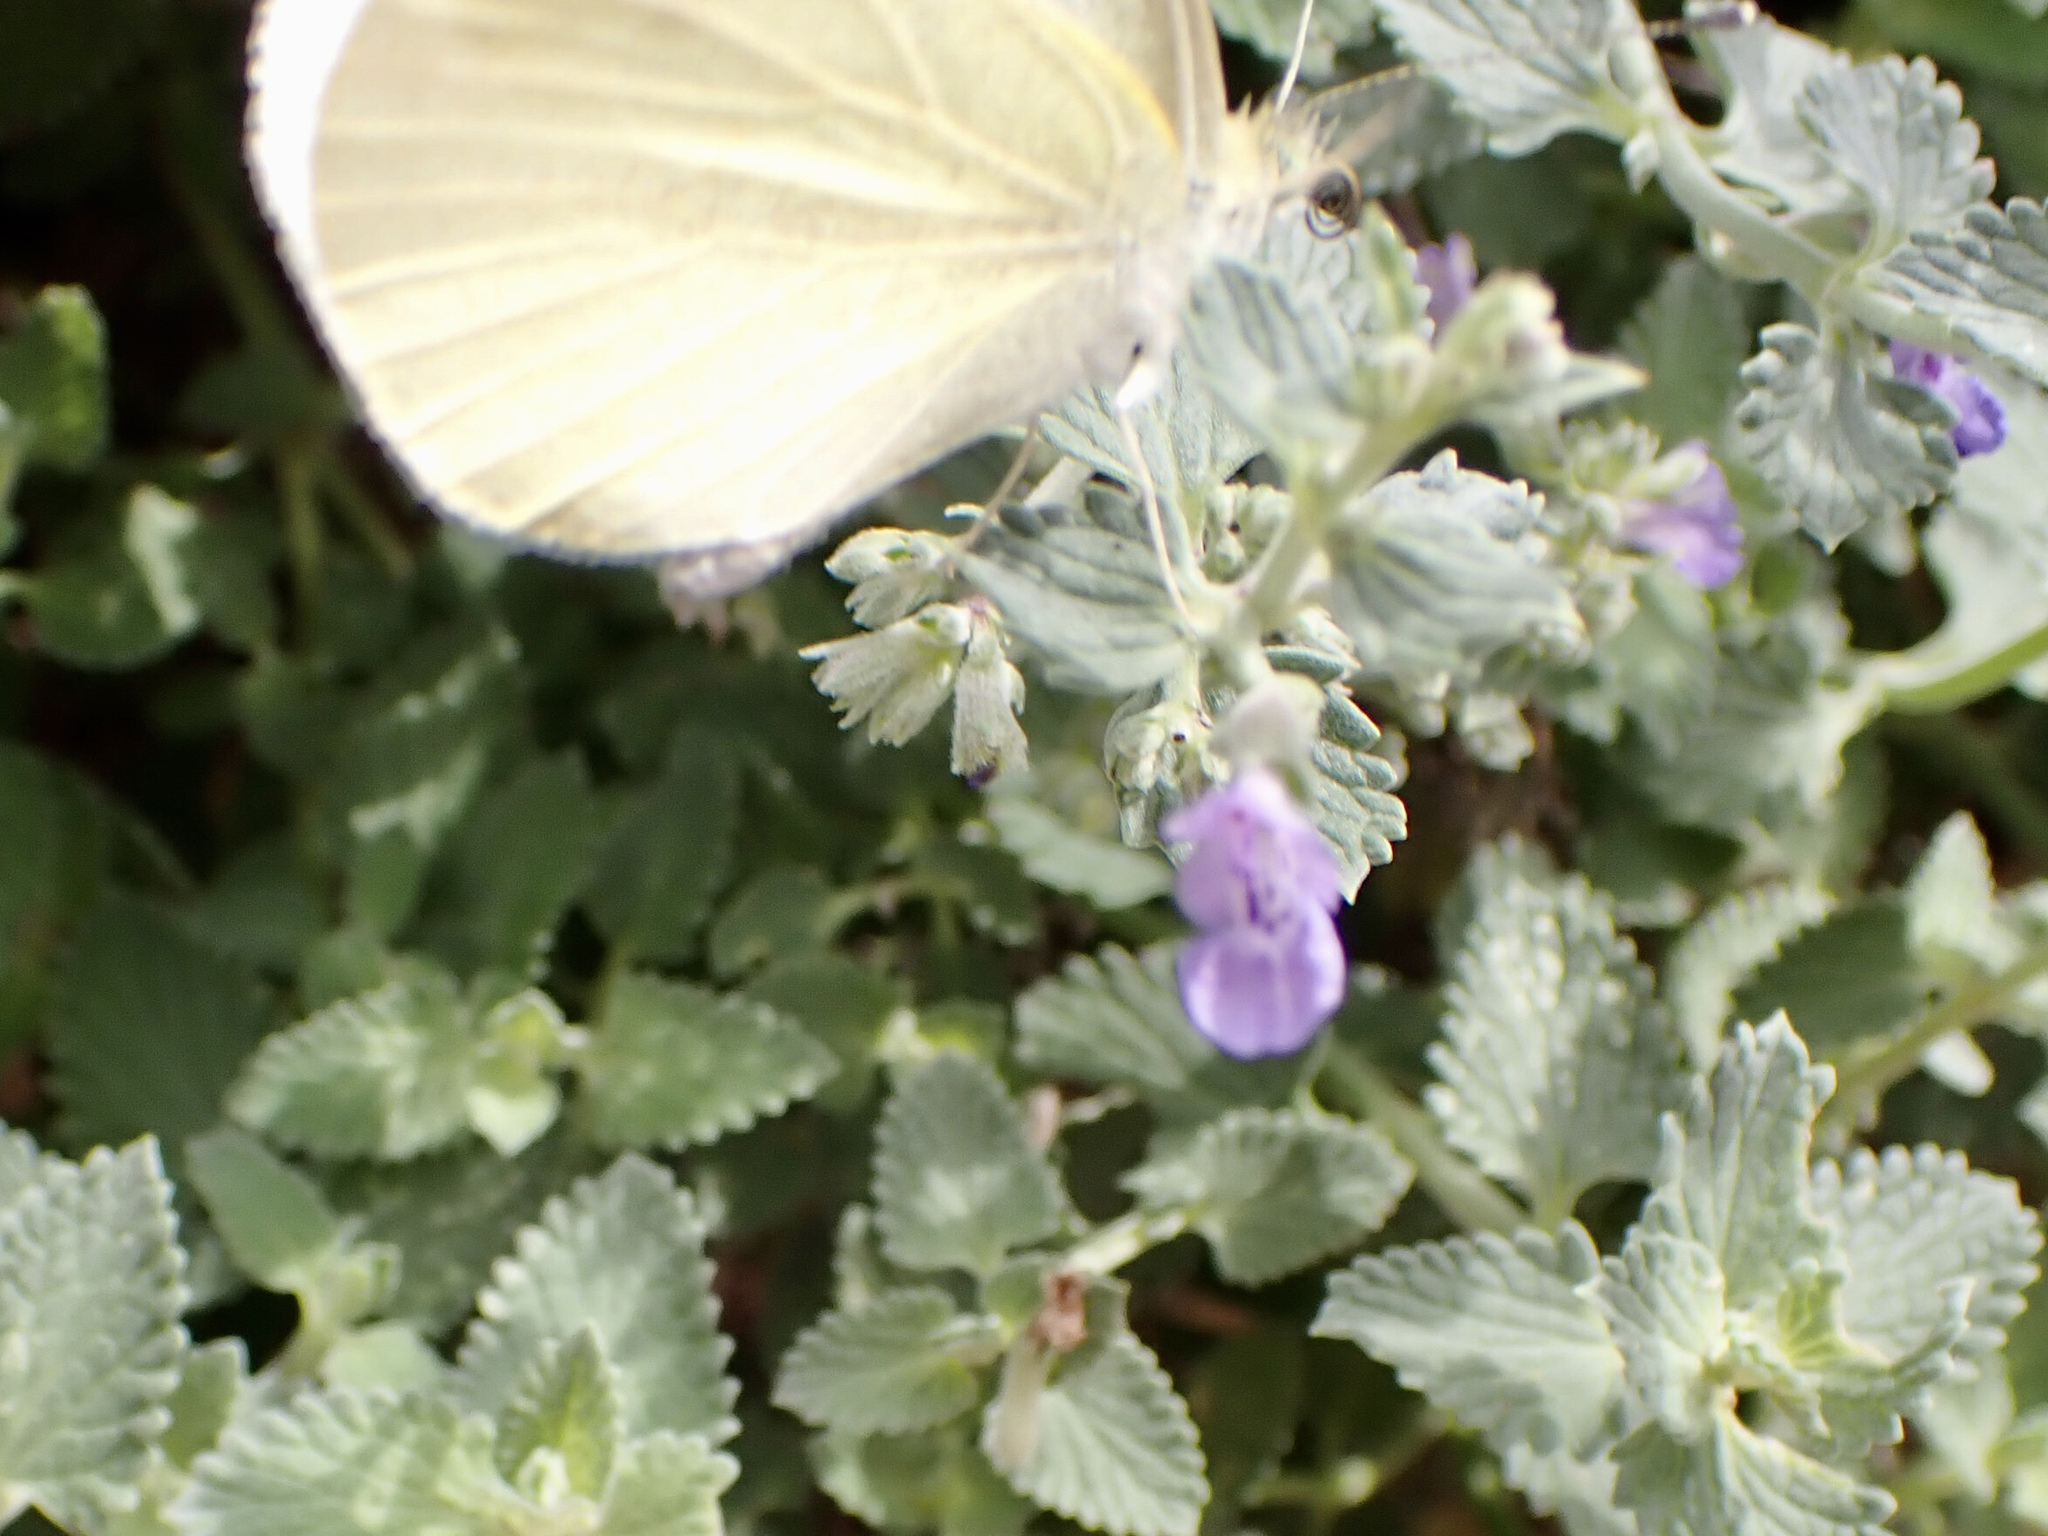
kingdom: Animalia
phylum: Arthropoda
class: Insecta
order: Lepidoptera
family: Pieridae
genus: Pieris
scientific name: Pieris rapae
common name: Small white
